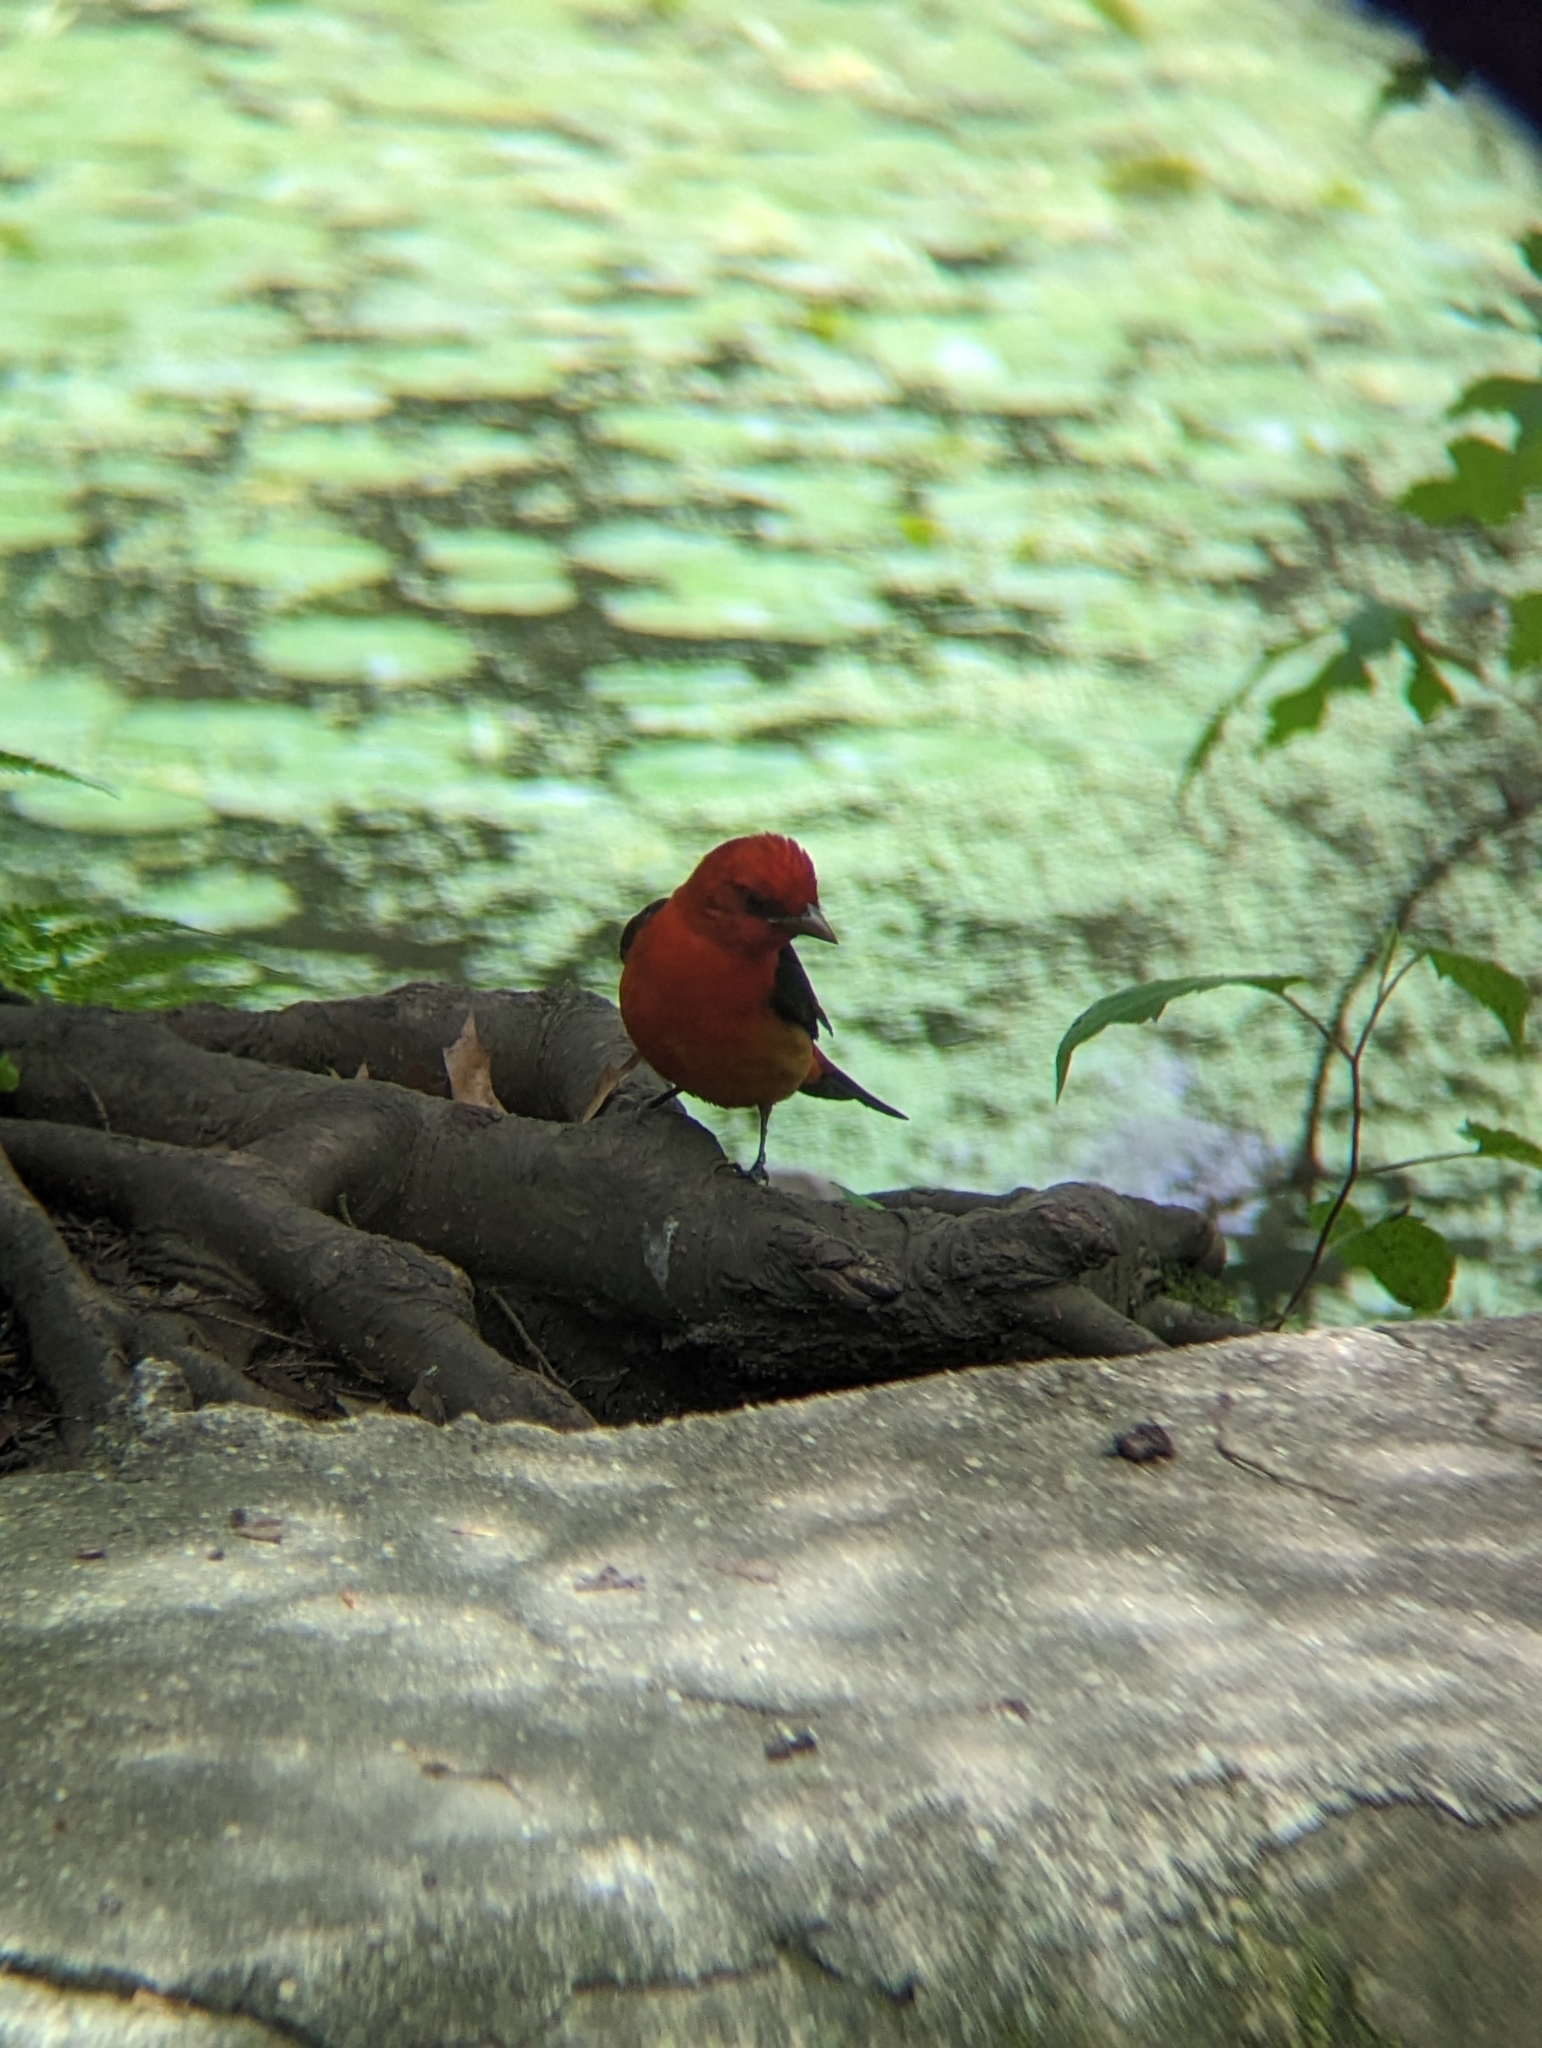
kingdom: Animalia
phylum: Chordata
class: Aves
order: Passeriformes
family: Cardinalidae
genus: Piranga
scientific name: Piranga olivacea
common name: Scarlet tanager
